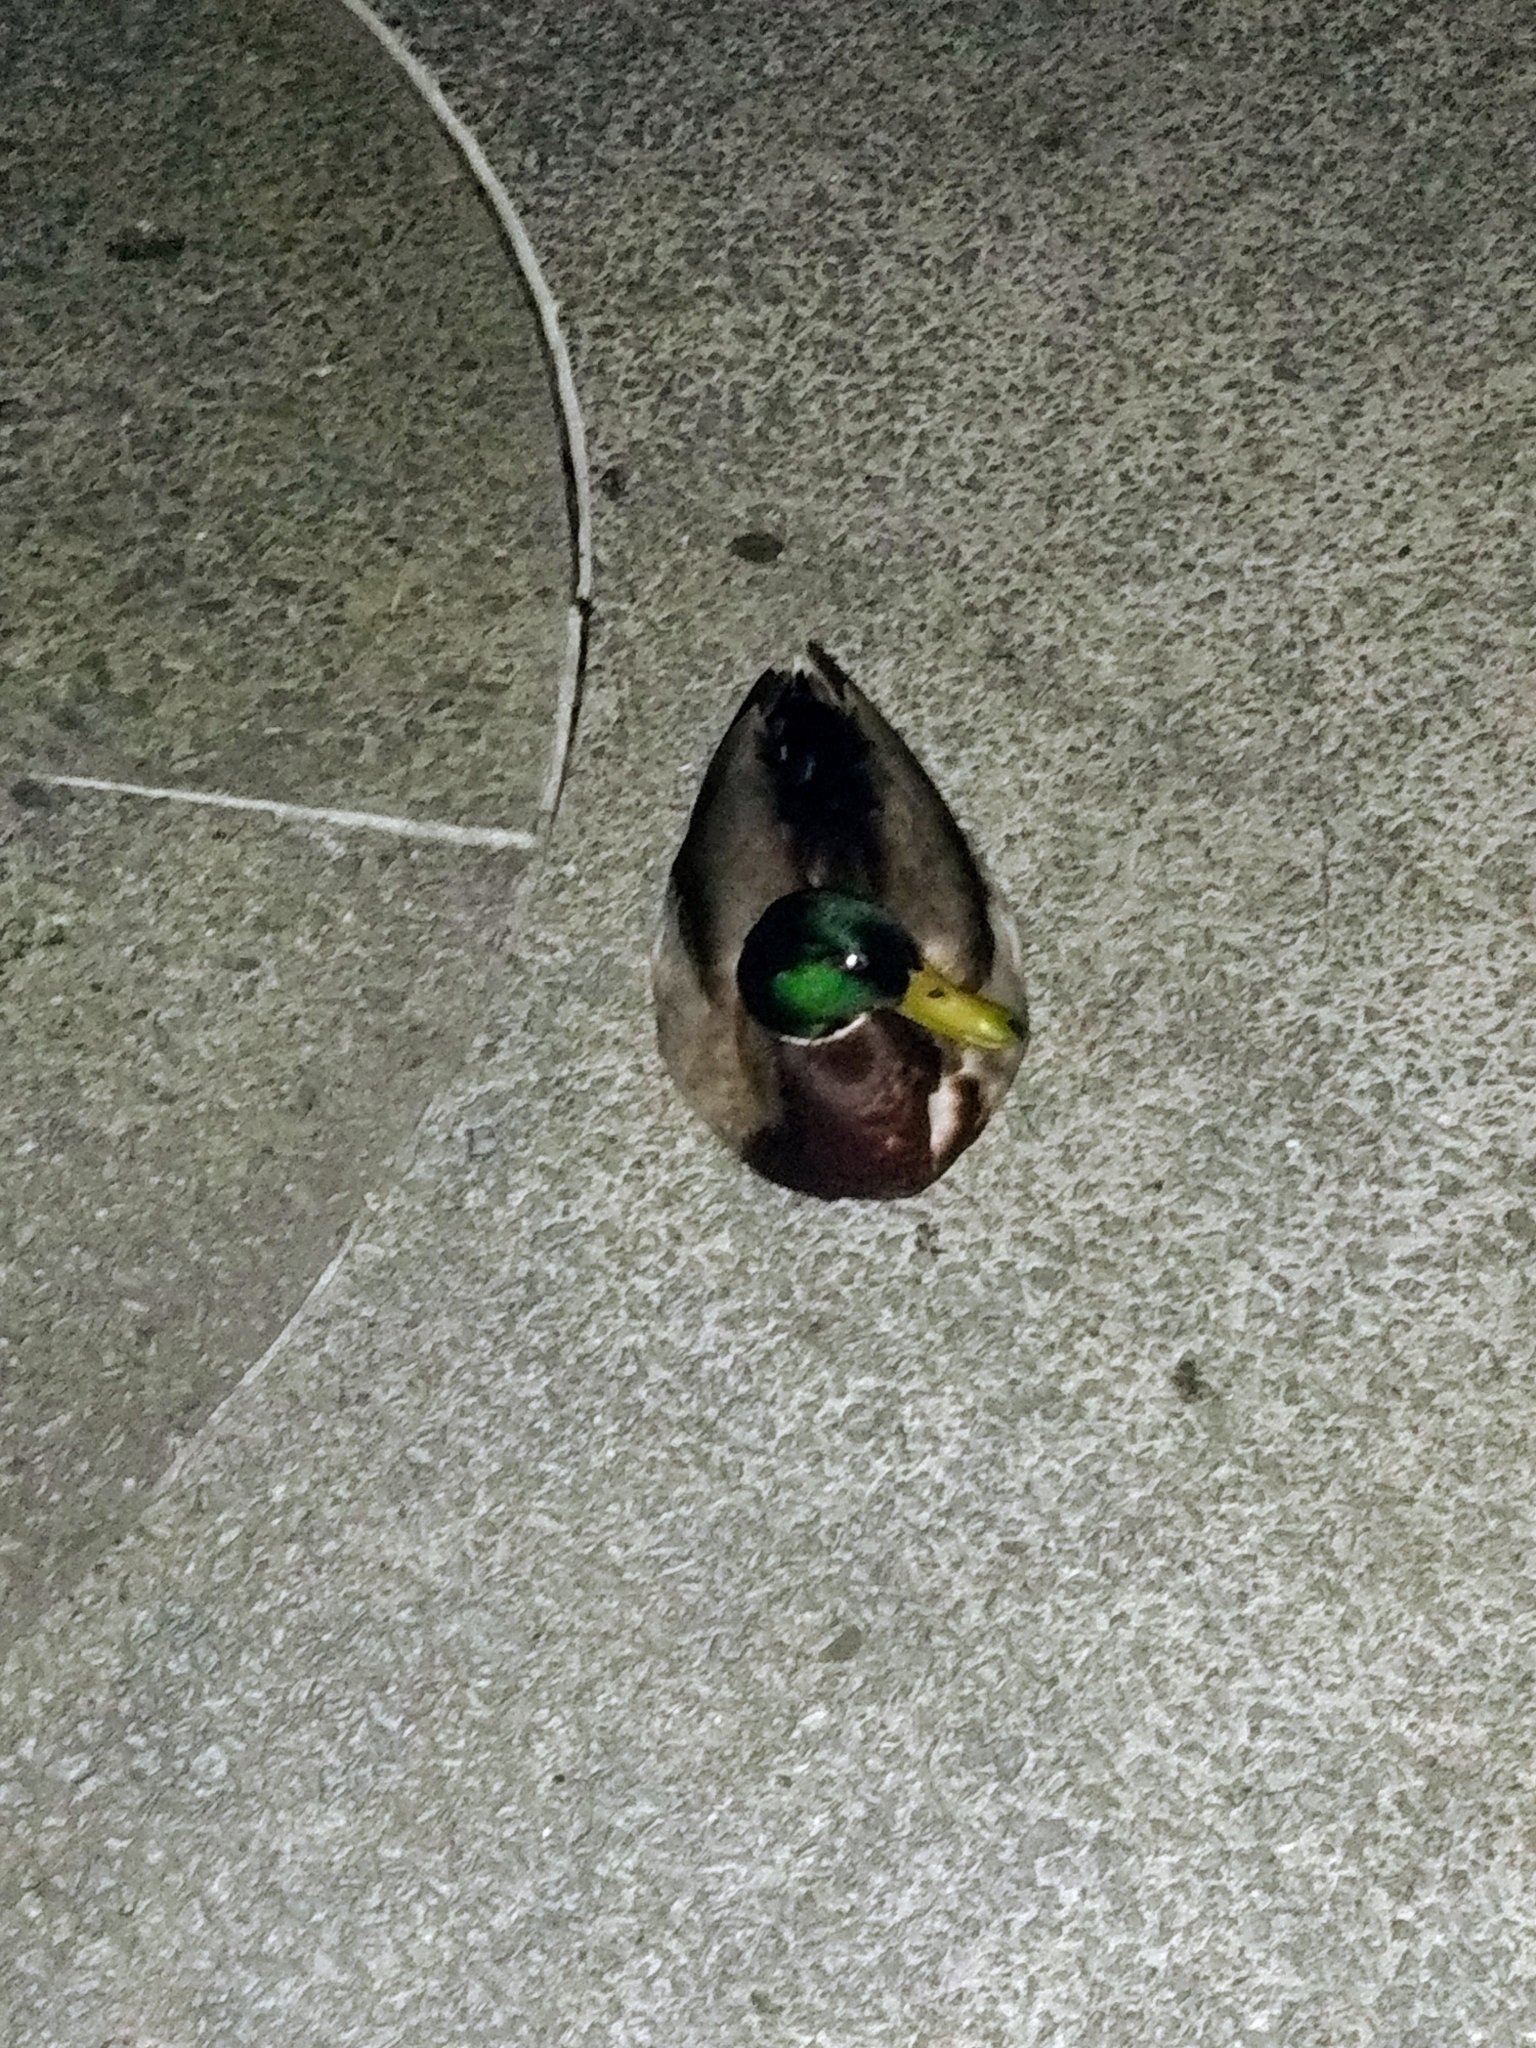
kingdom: Animalia
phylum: Chordata
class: Aves
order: Anseriformes
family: Anatidae
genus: Anas
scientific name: Anas platyrhynchos
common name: Mallard
